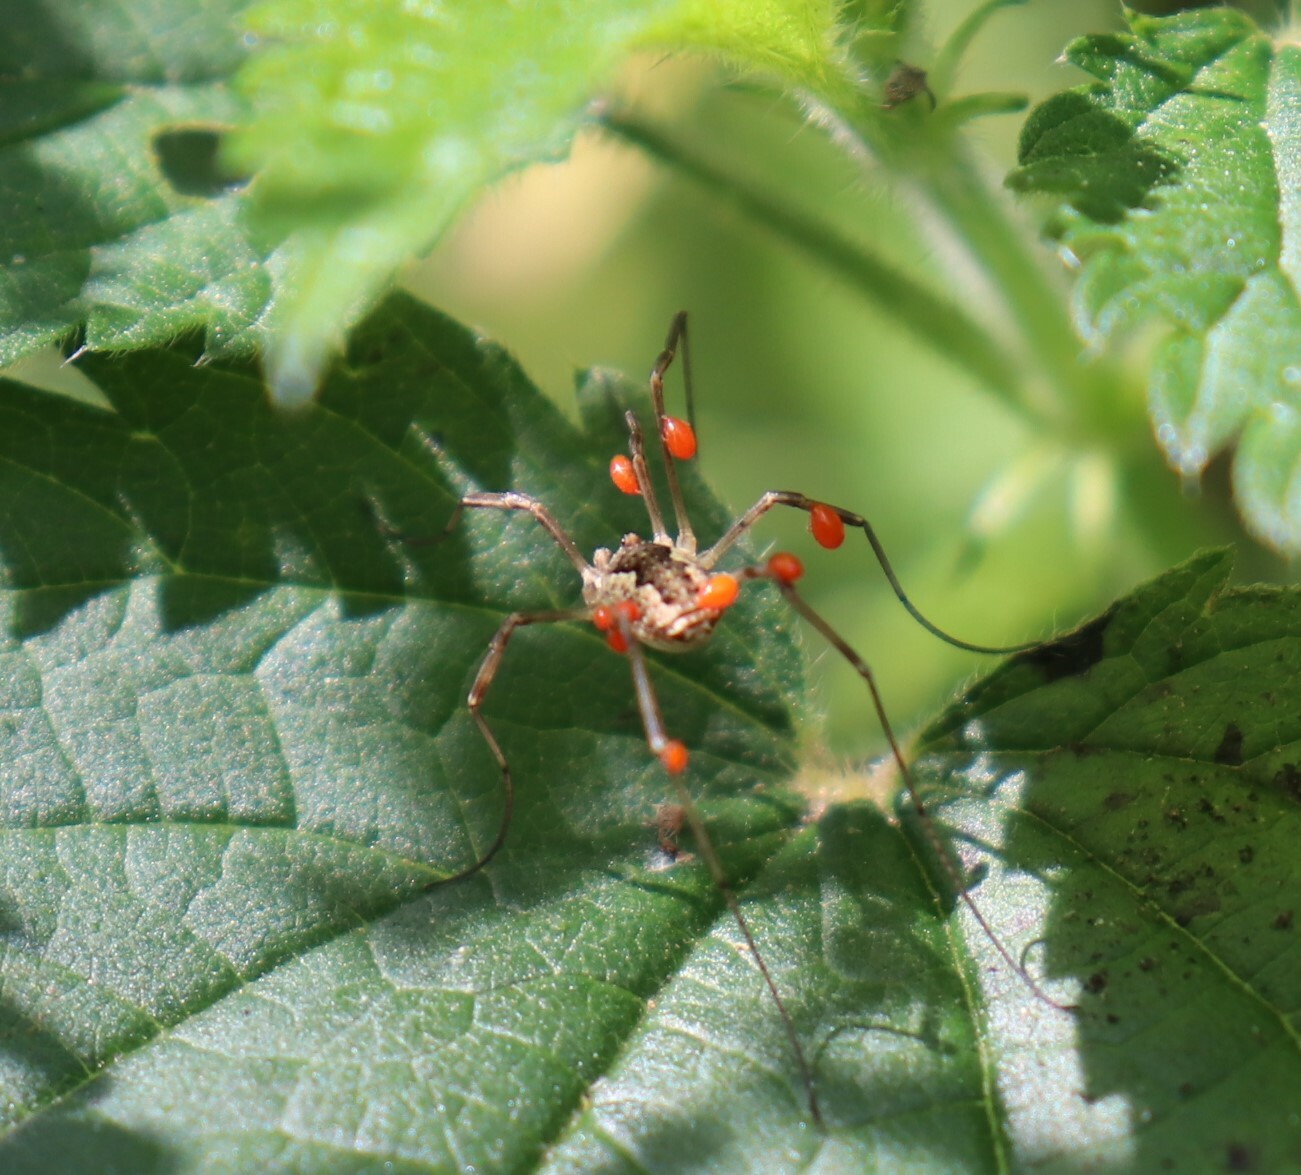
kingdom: Animalia
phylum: Arthropoda
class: Arachnida
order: Opiliones
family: Phalangiidae
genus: Mitopus
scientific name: Mitopus morio
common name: Saddleback harvestman
